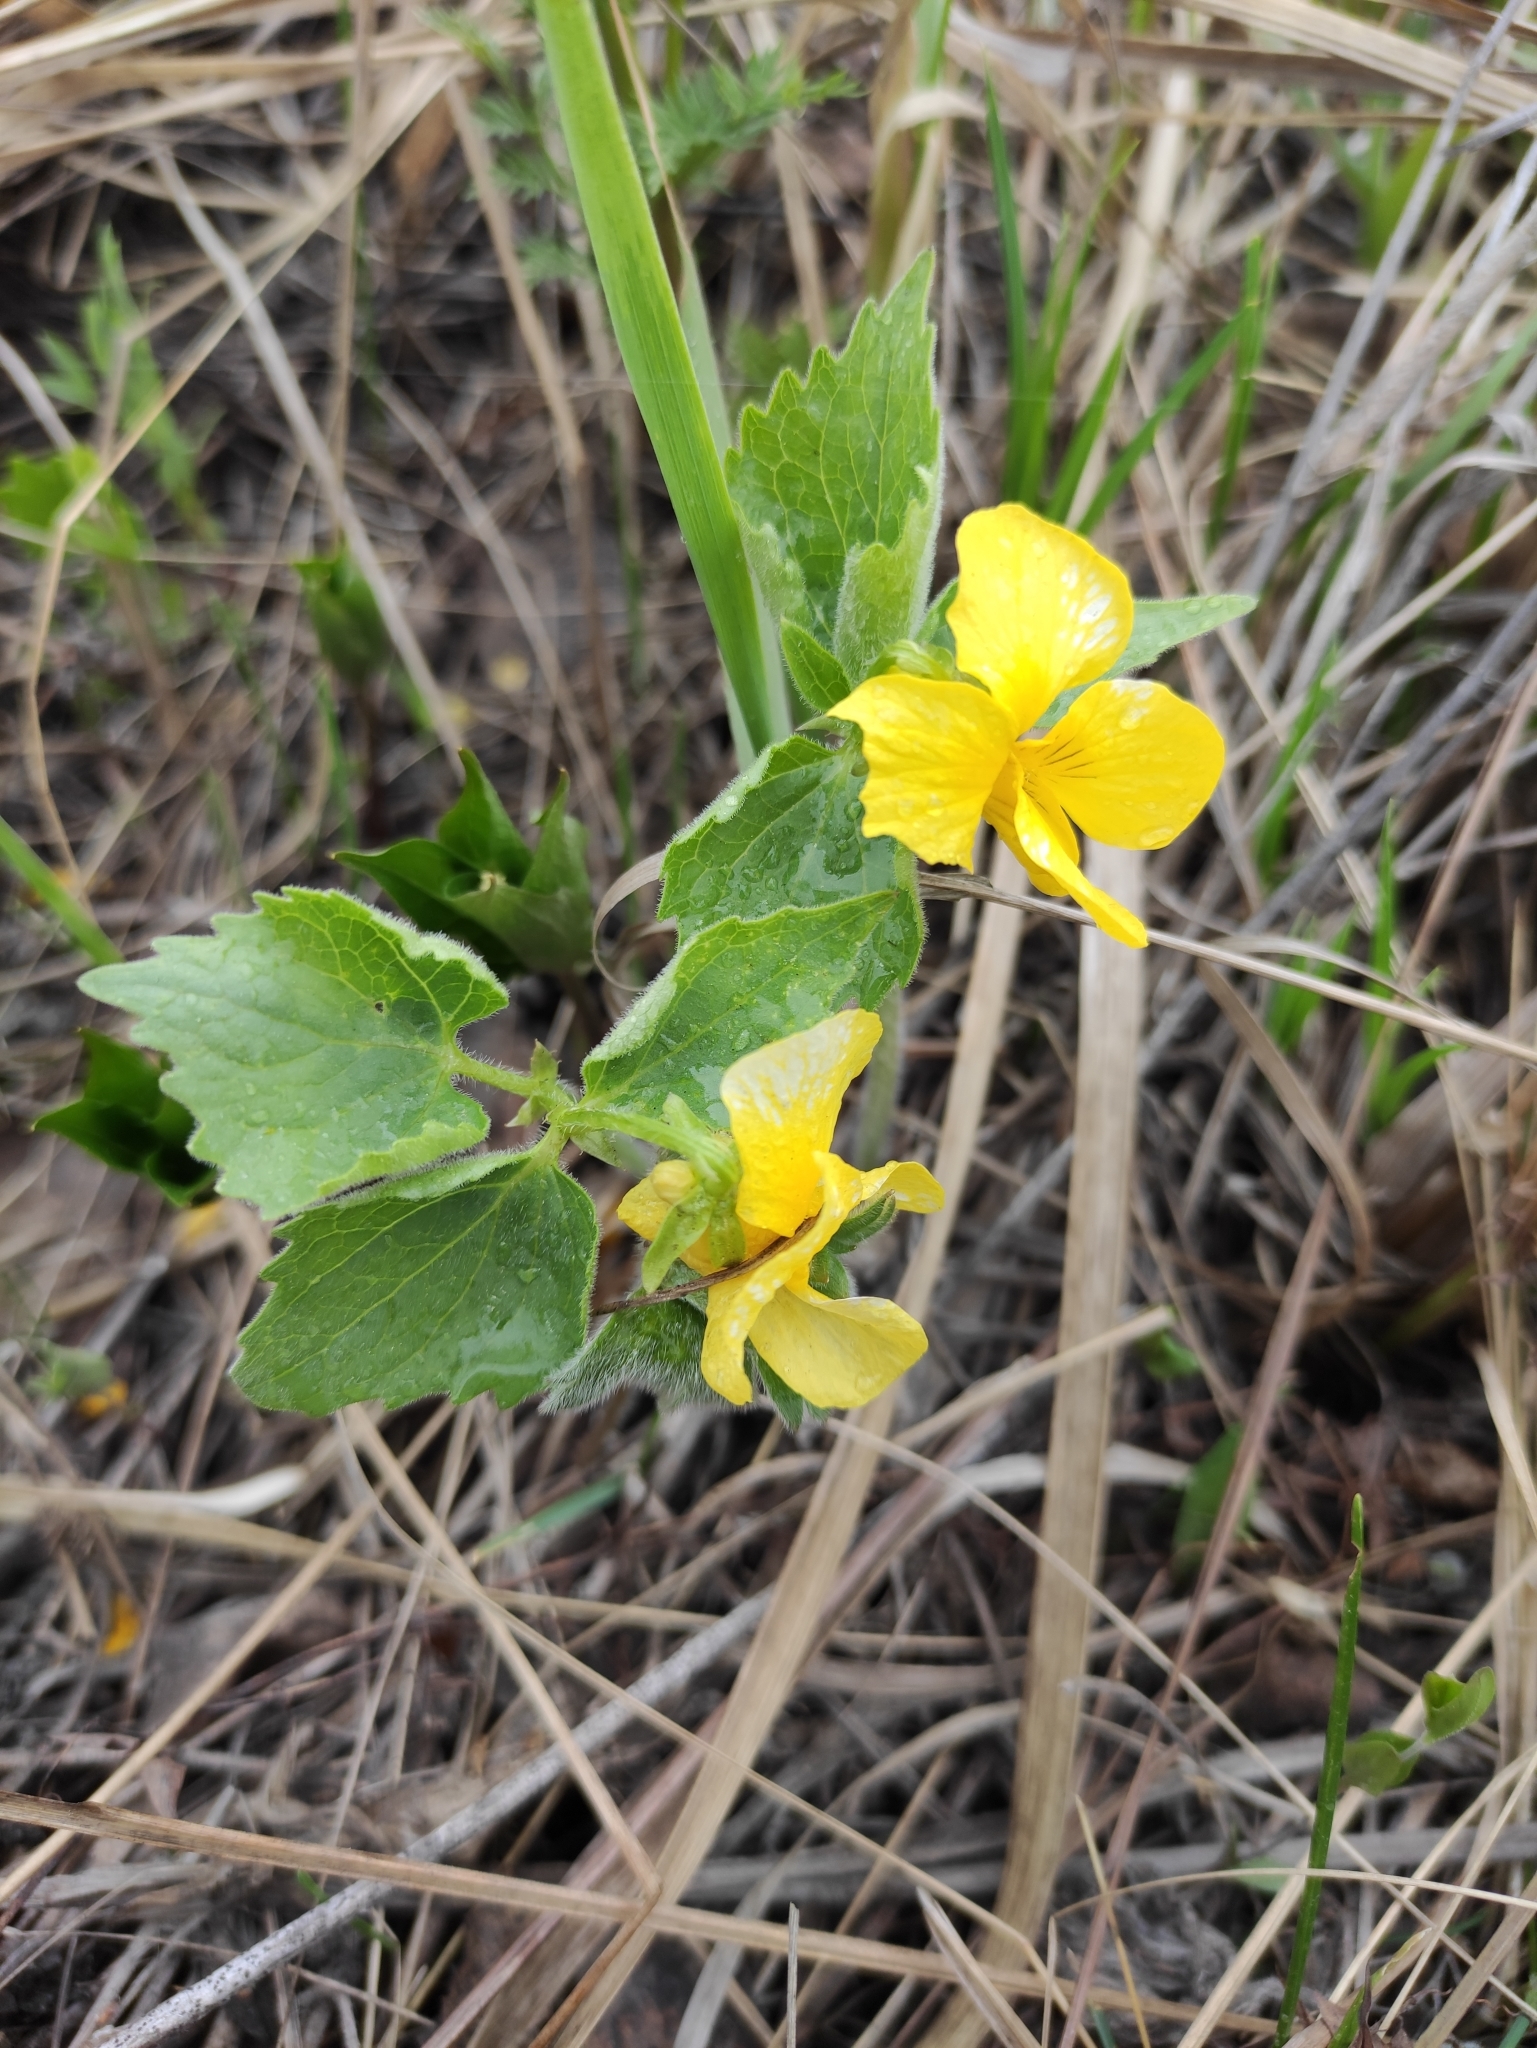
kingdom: Plantae
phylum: Tracheophyta
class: Magnoliopsida
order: Malpighiales
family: Violaceae
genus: Viola
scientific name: Viola uniflora
